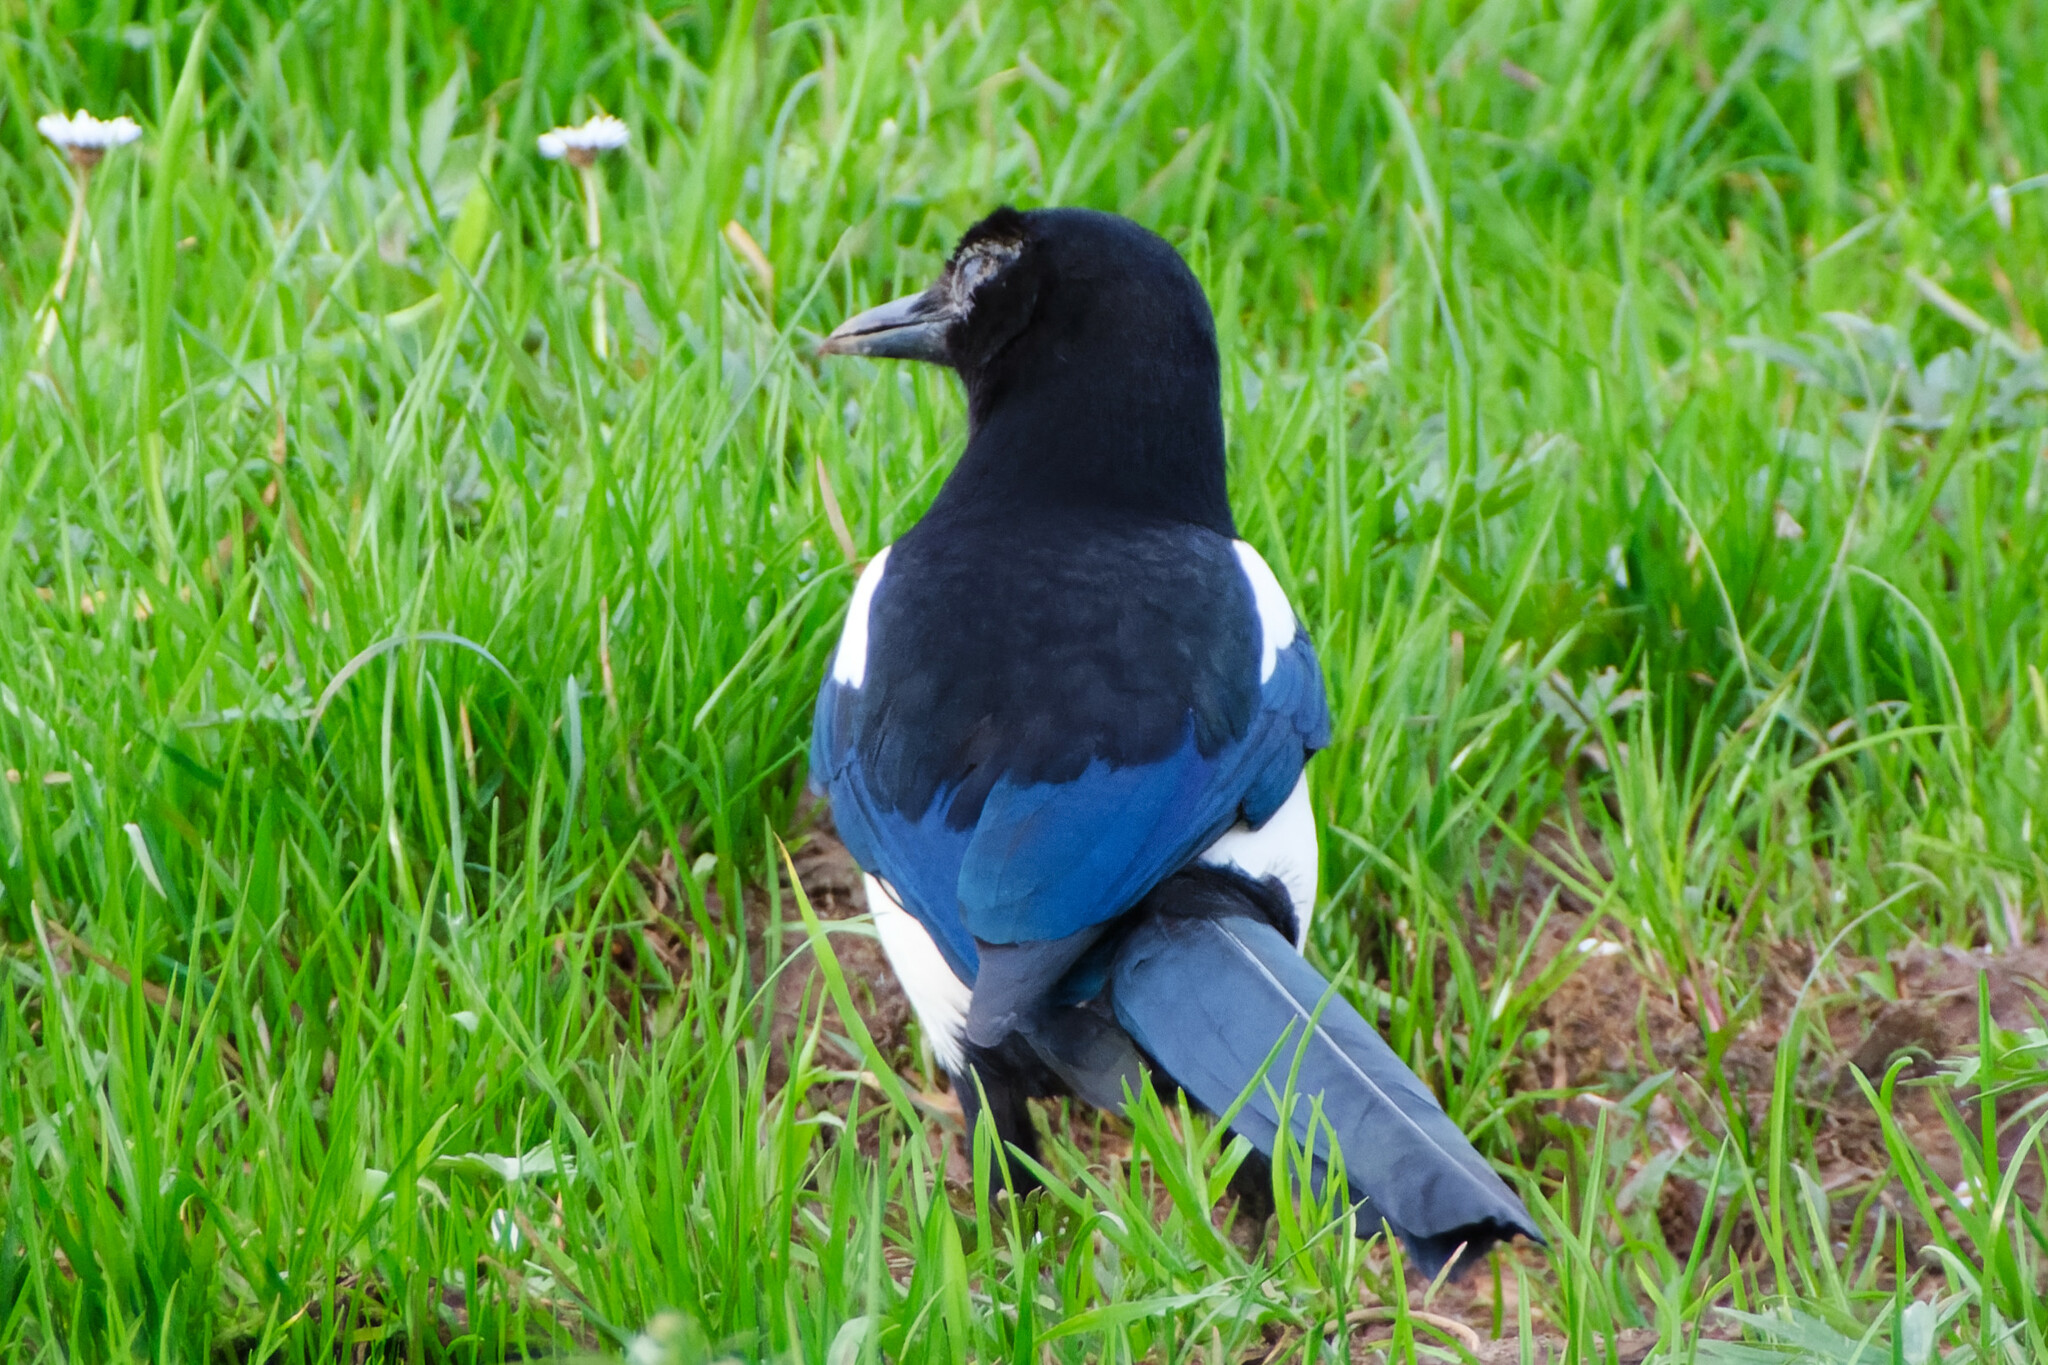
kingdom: Animalia
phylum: Chordata
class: Aves
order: Passeriformes
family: Corvidae
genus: Pica
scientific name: Pica pica
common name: Eurasian magpie
